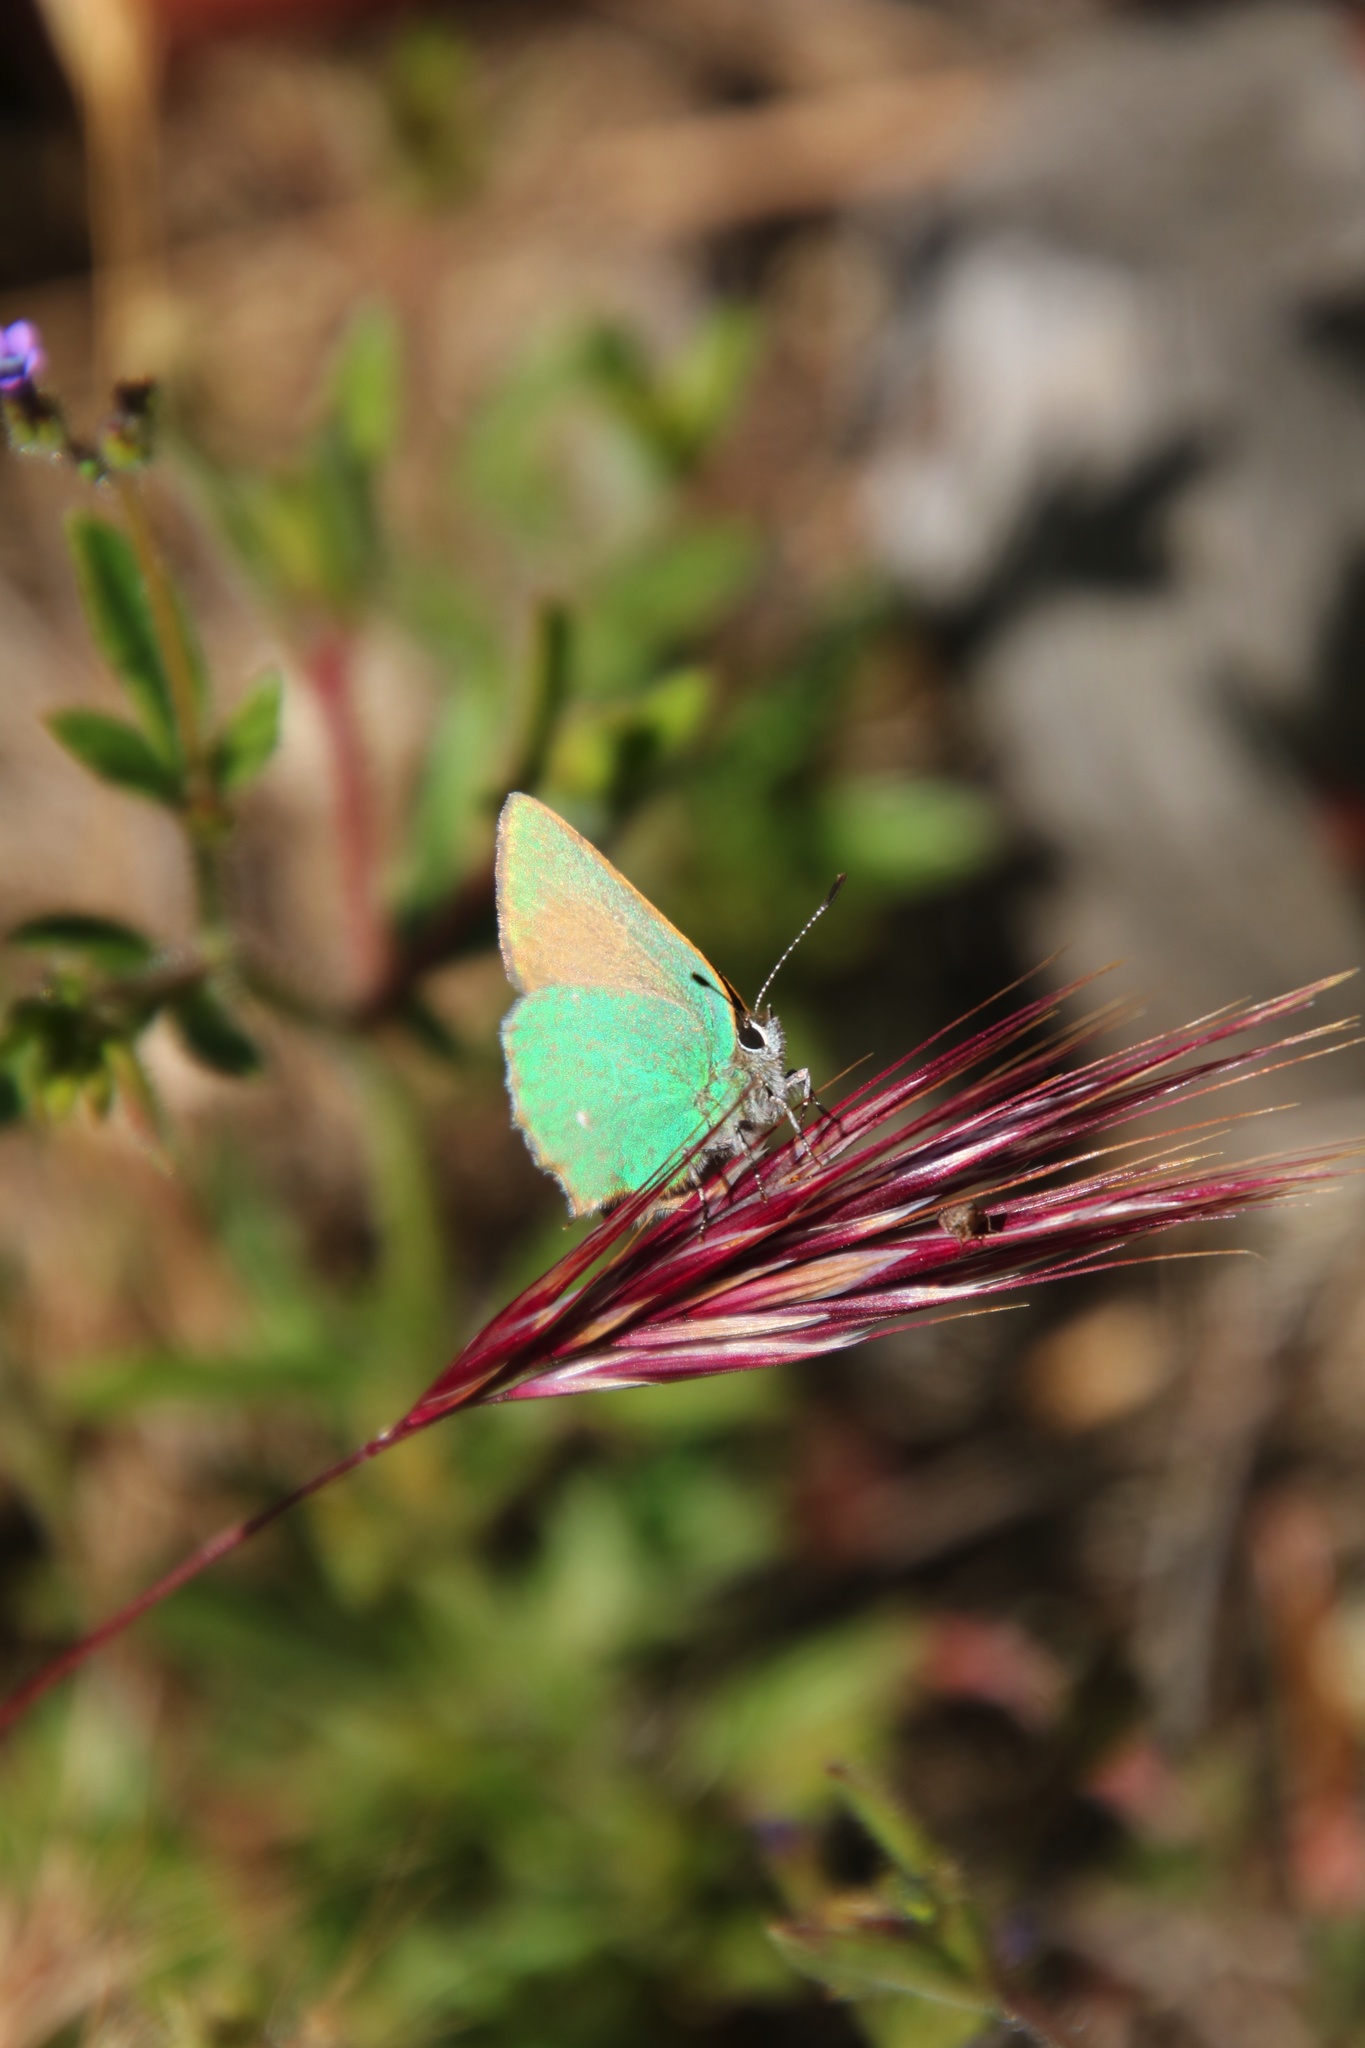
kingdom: Animalia
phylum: Arthropoda
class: Insecta
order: Lepidoptera
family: Lycaenidae
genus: Callophrys
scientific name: Callophrys dumetorum
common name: Bramble hairstreak
